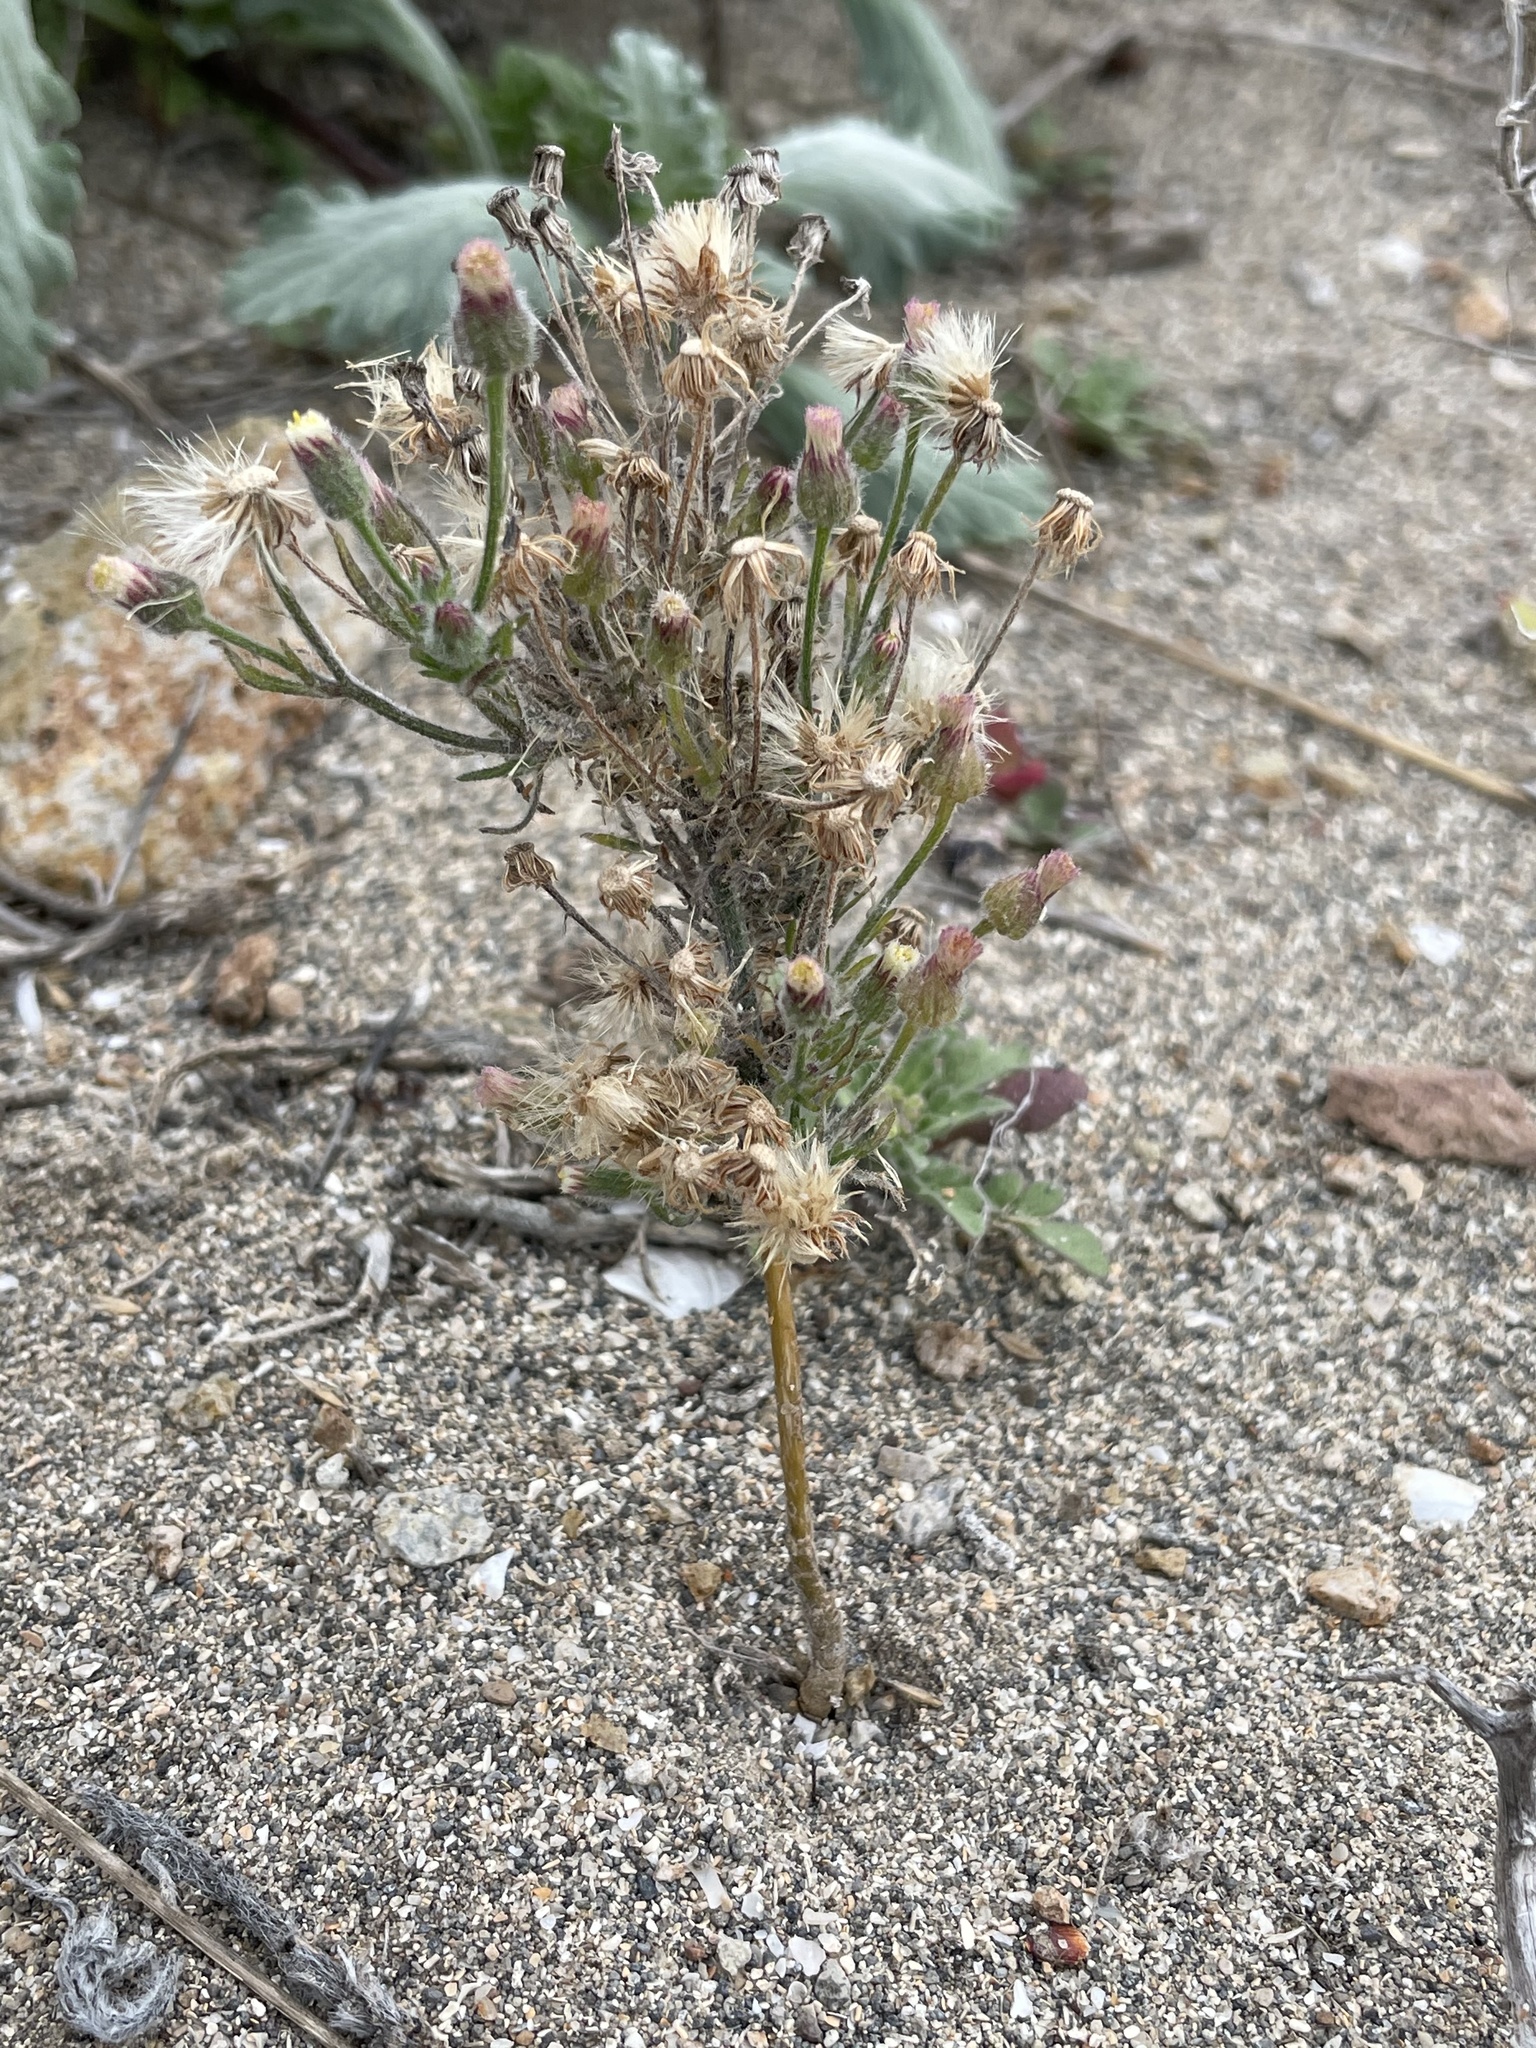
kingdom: Plantae
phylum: Tracheophyta
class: Magnoliopsida
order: Asterales
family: Asteraceae
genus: Erigeron
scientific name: Erigeron bonariensis
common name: Argentine fleabane
